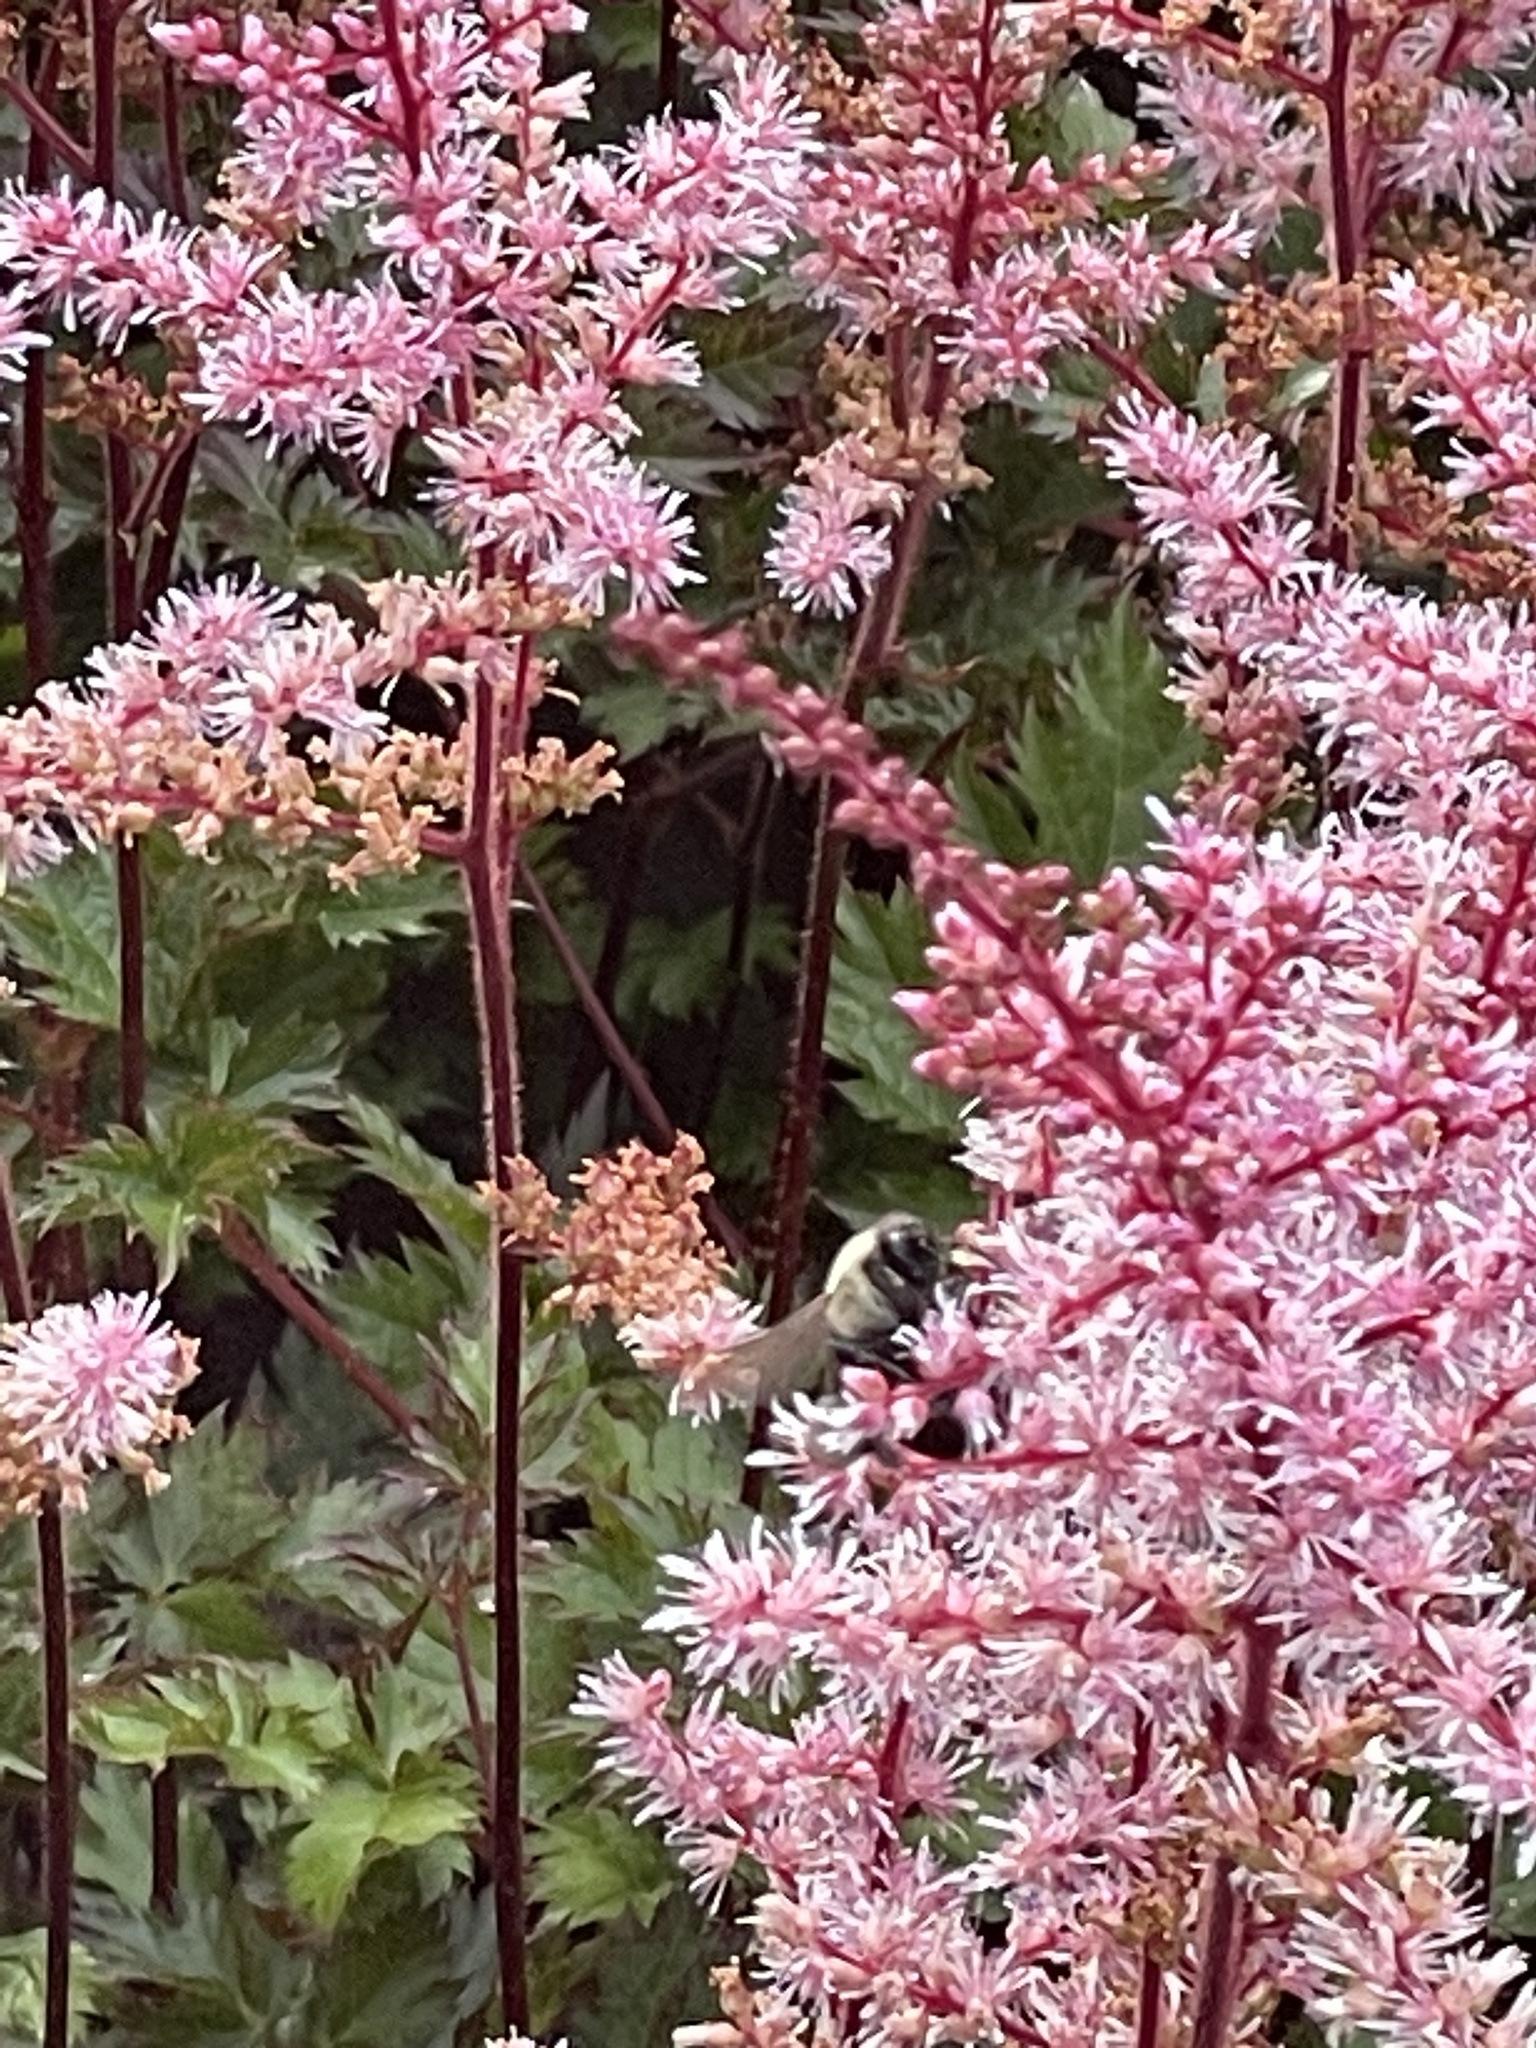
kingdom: Animalia
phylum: Arthropoda
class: Insecta
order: Hymenoptera
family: Apidae
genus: Bombus
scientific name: Bombus impatiens
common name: Common eastern bumble bee
